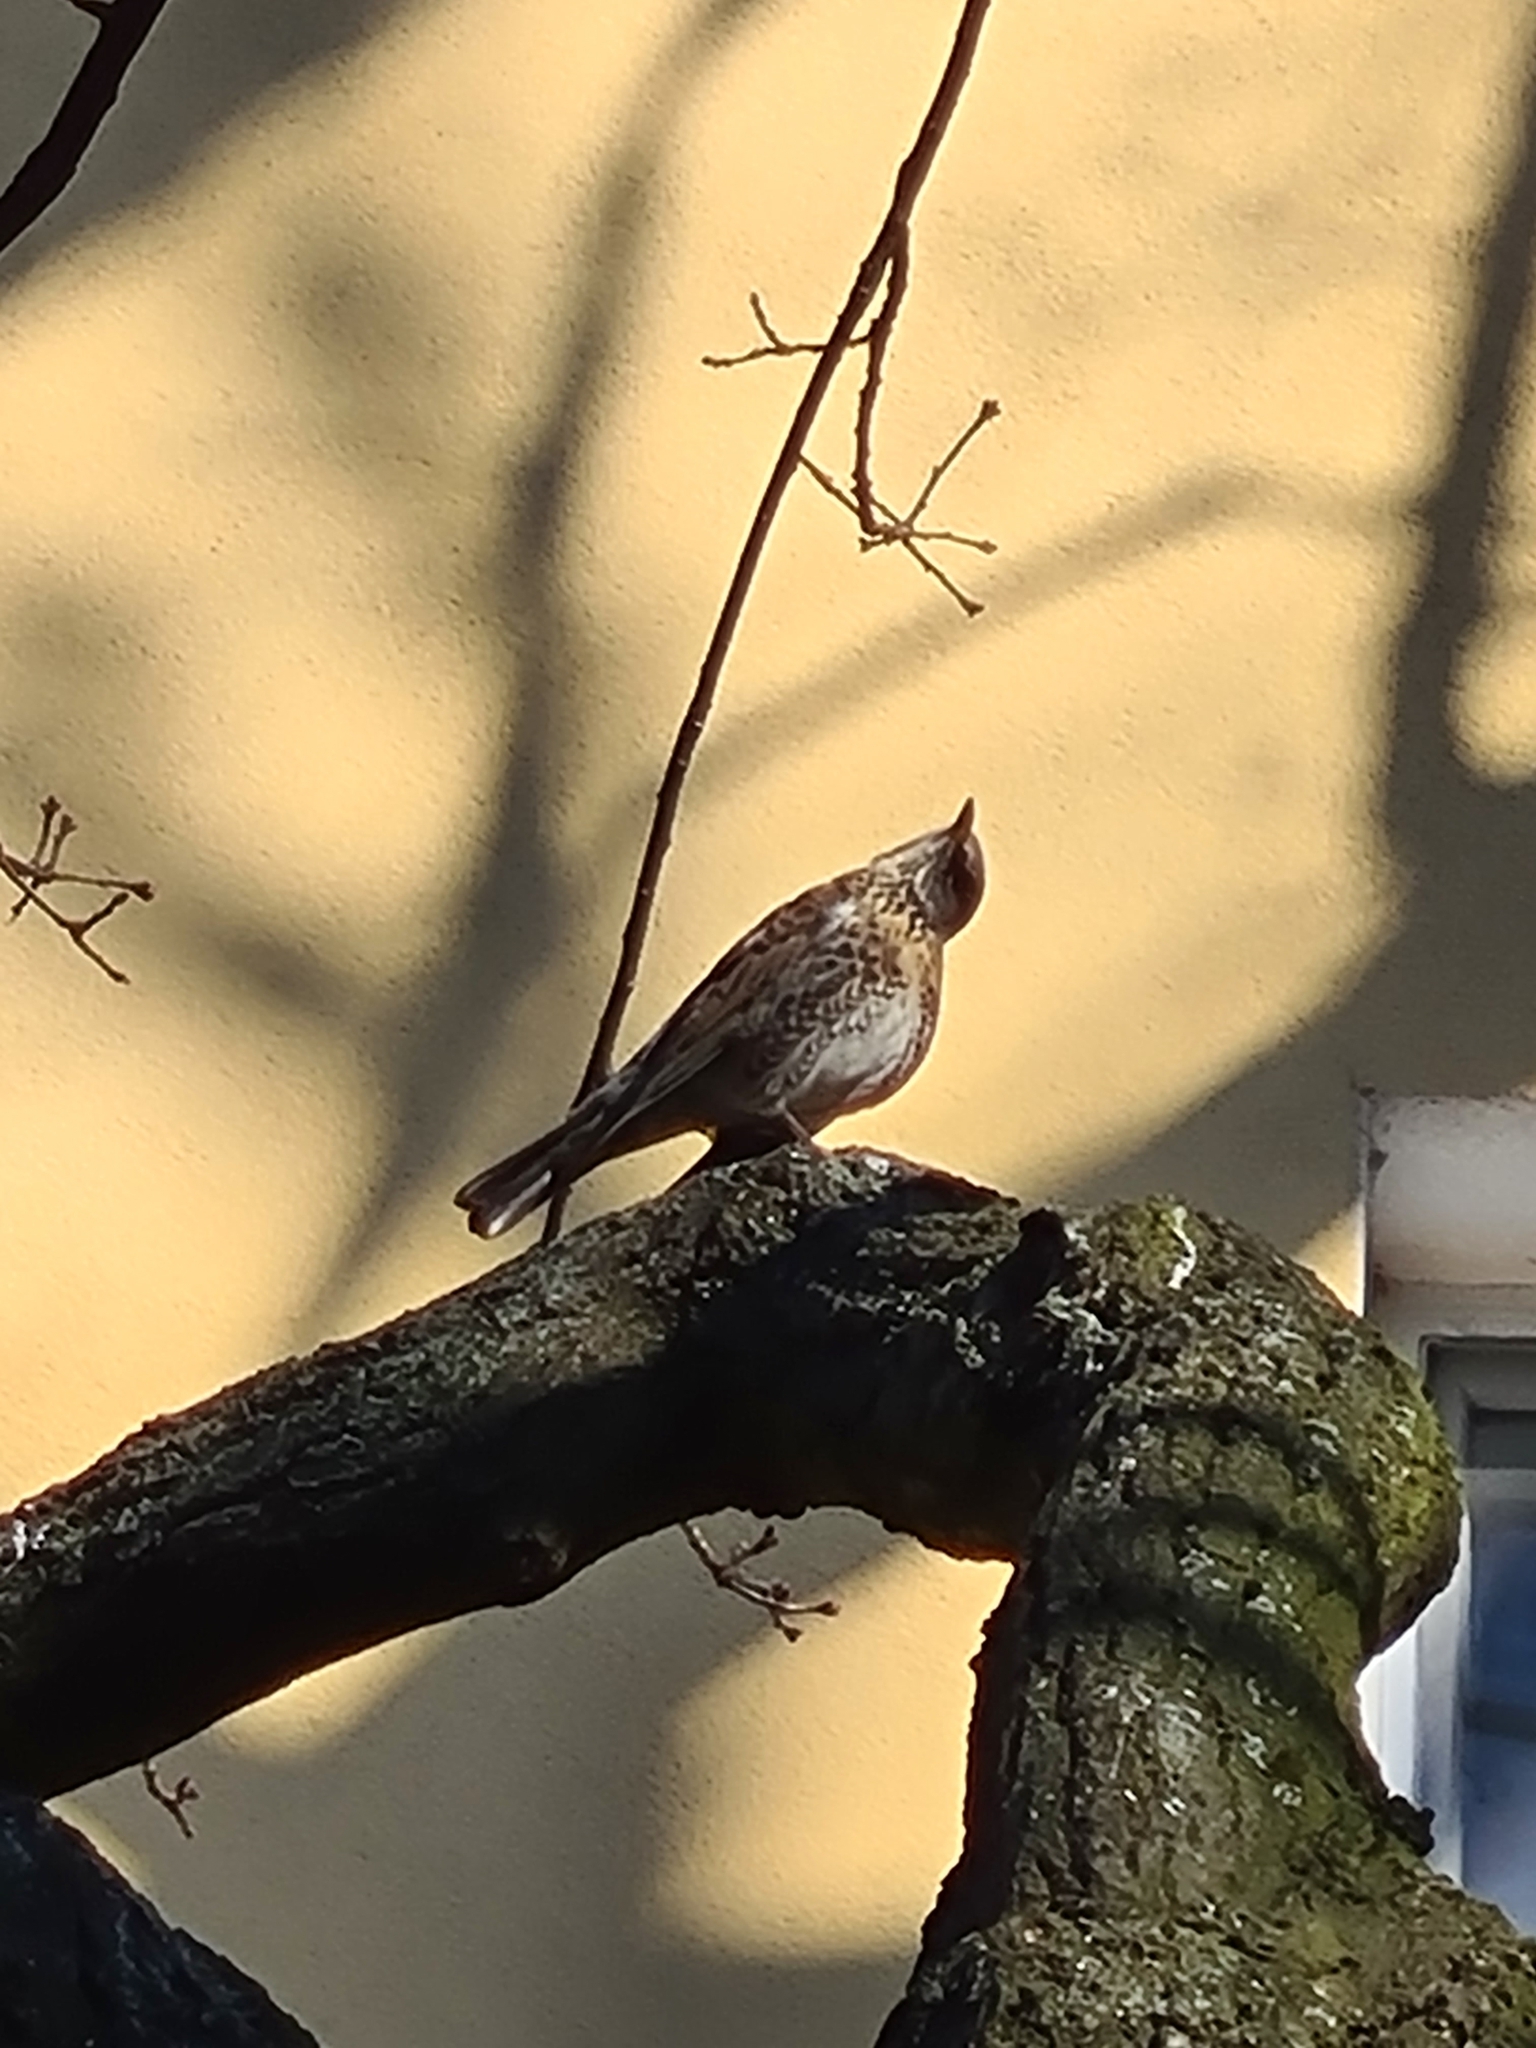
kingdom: Animalia
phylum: Chordata
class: Aves
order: Passeriformes
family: Turdidae
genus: Turdus
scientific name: Turdus pilaris
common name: Fieldfare
